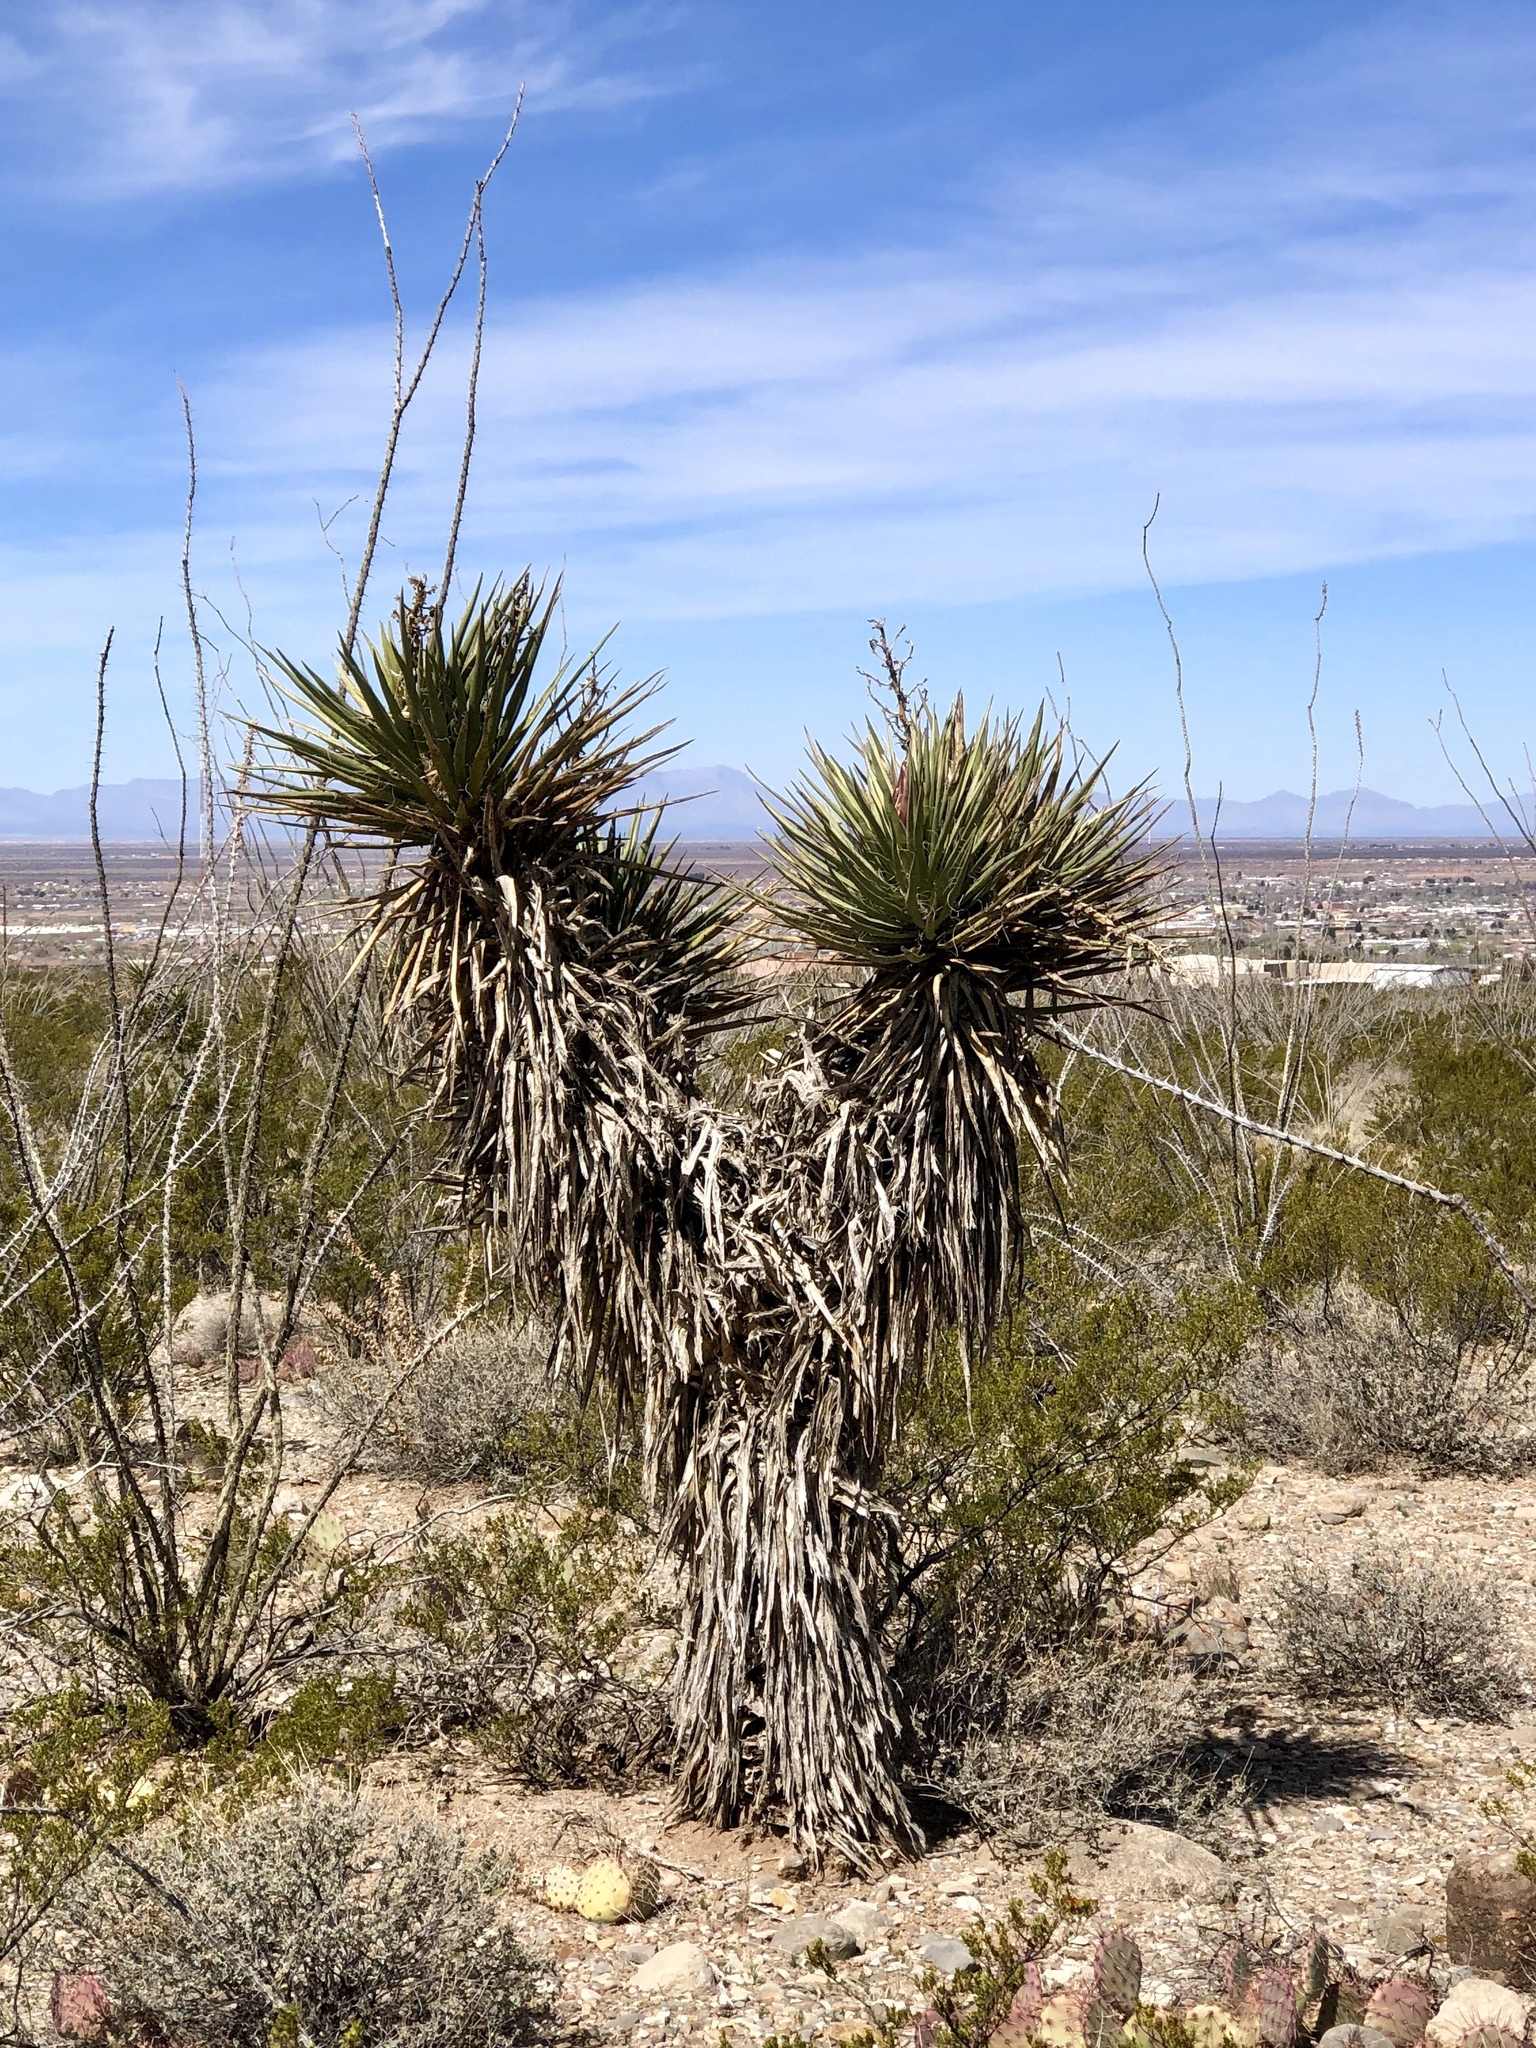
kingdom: Plantae
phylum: Tracheophyta
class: Liliopsida
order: Asparagales
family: Asparagaceae
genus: Yucca
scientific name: Yucca treculiana
